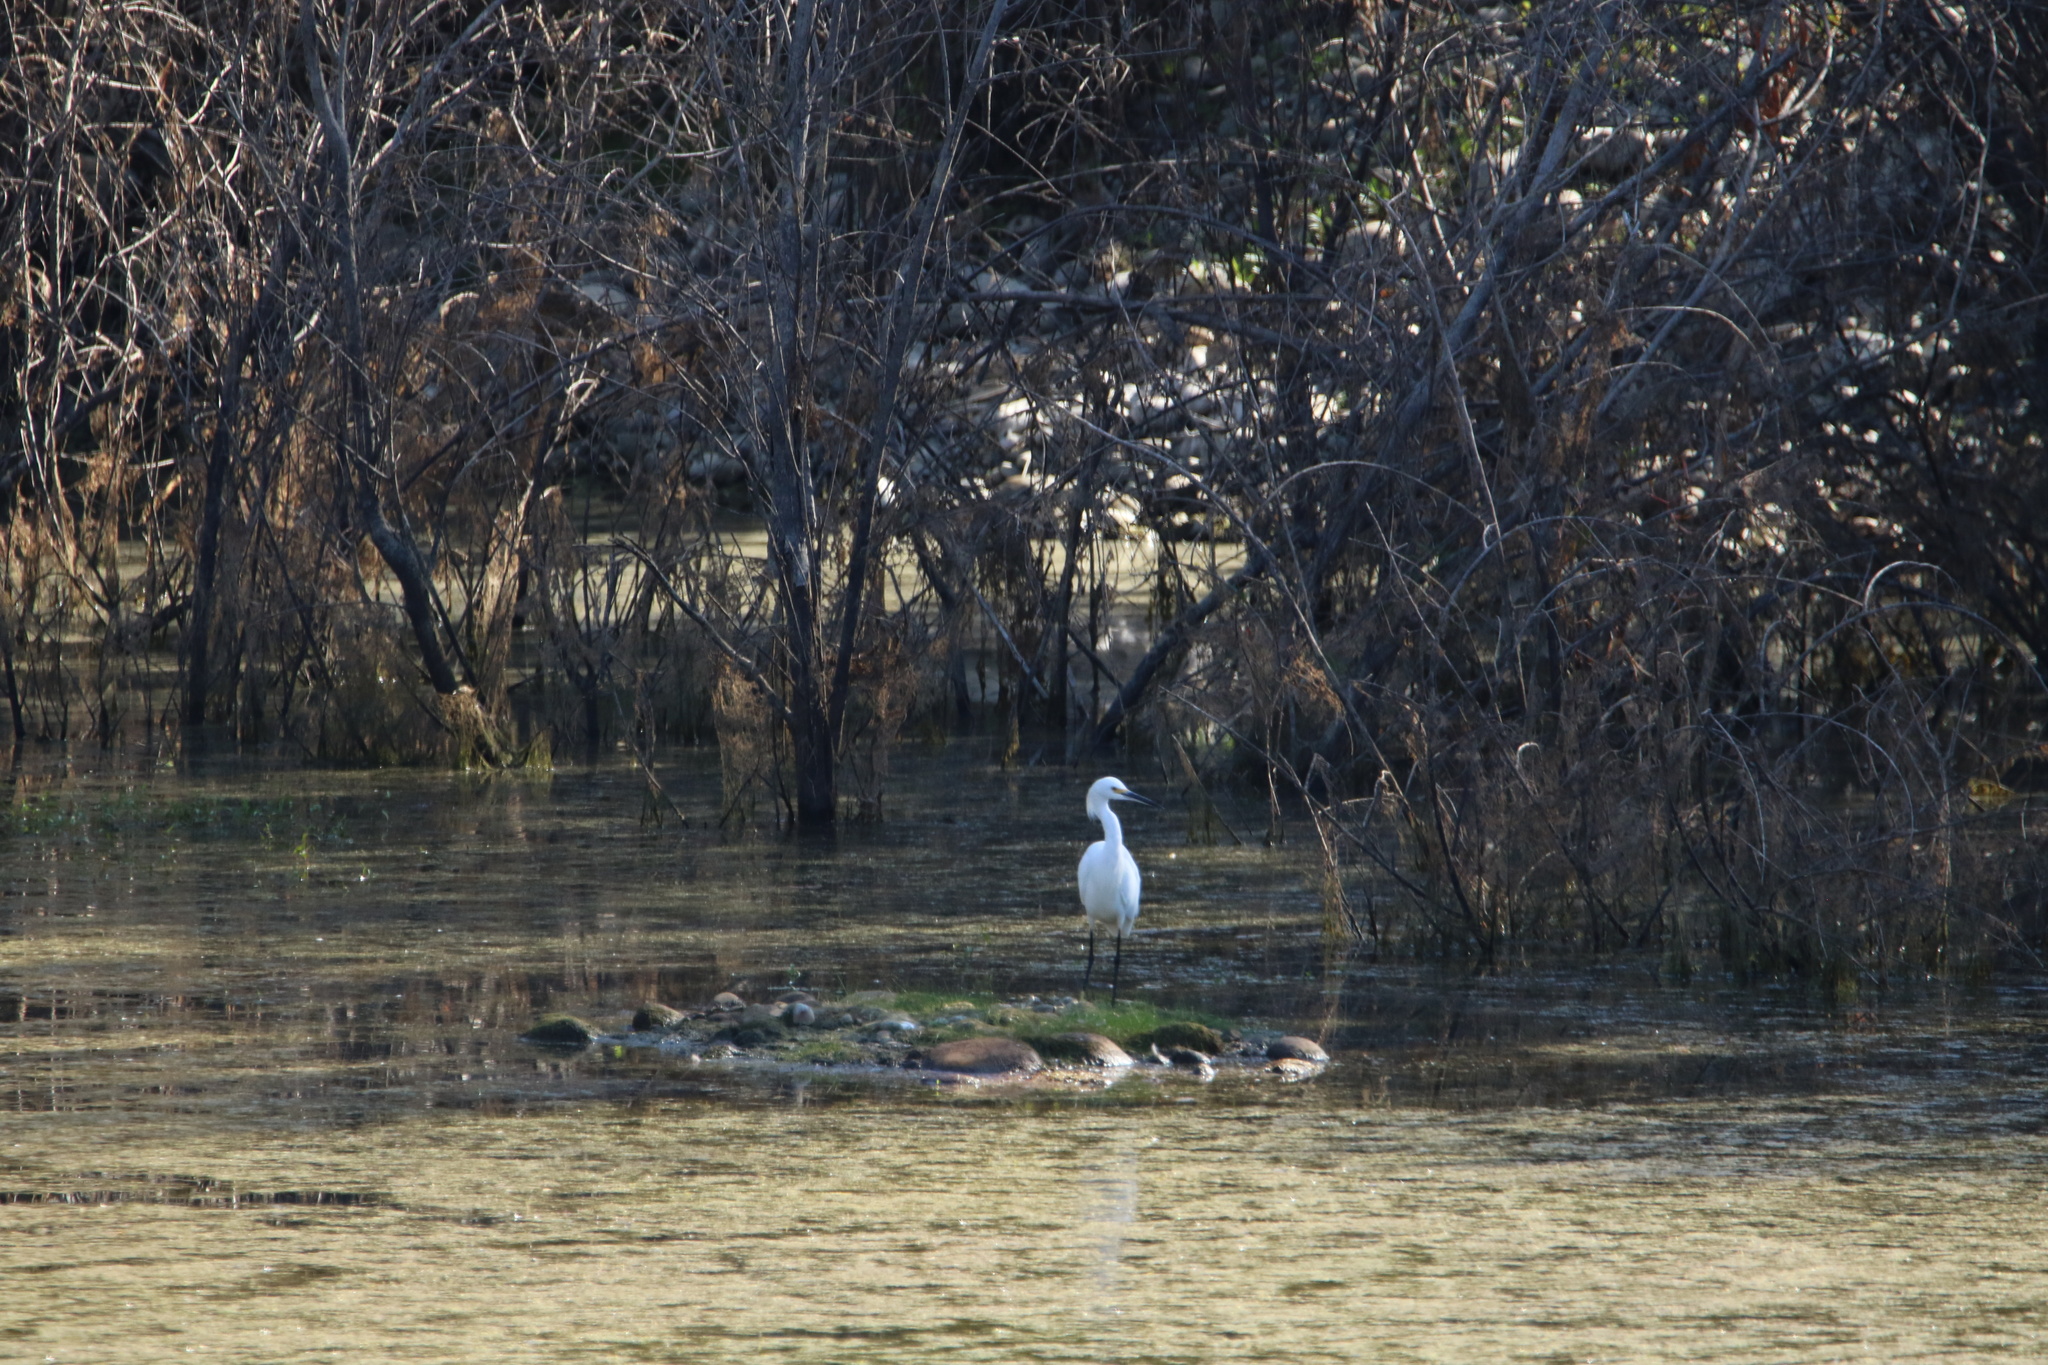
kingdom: Animalia
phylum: Chordata
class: Aves
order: Pelecaniformes
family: Ardeidae
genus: Egretta
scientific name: Egretta thula
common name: Snowy egret
